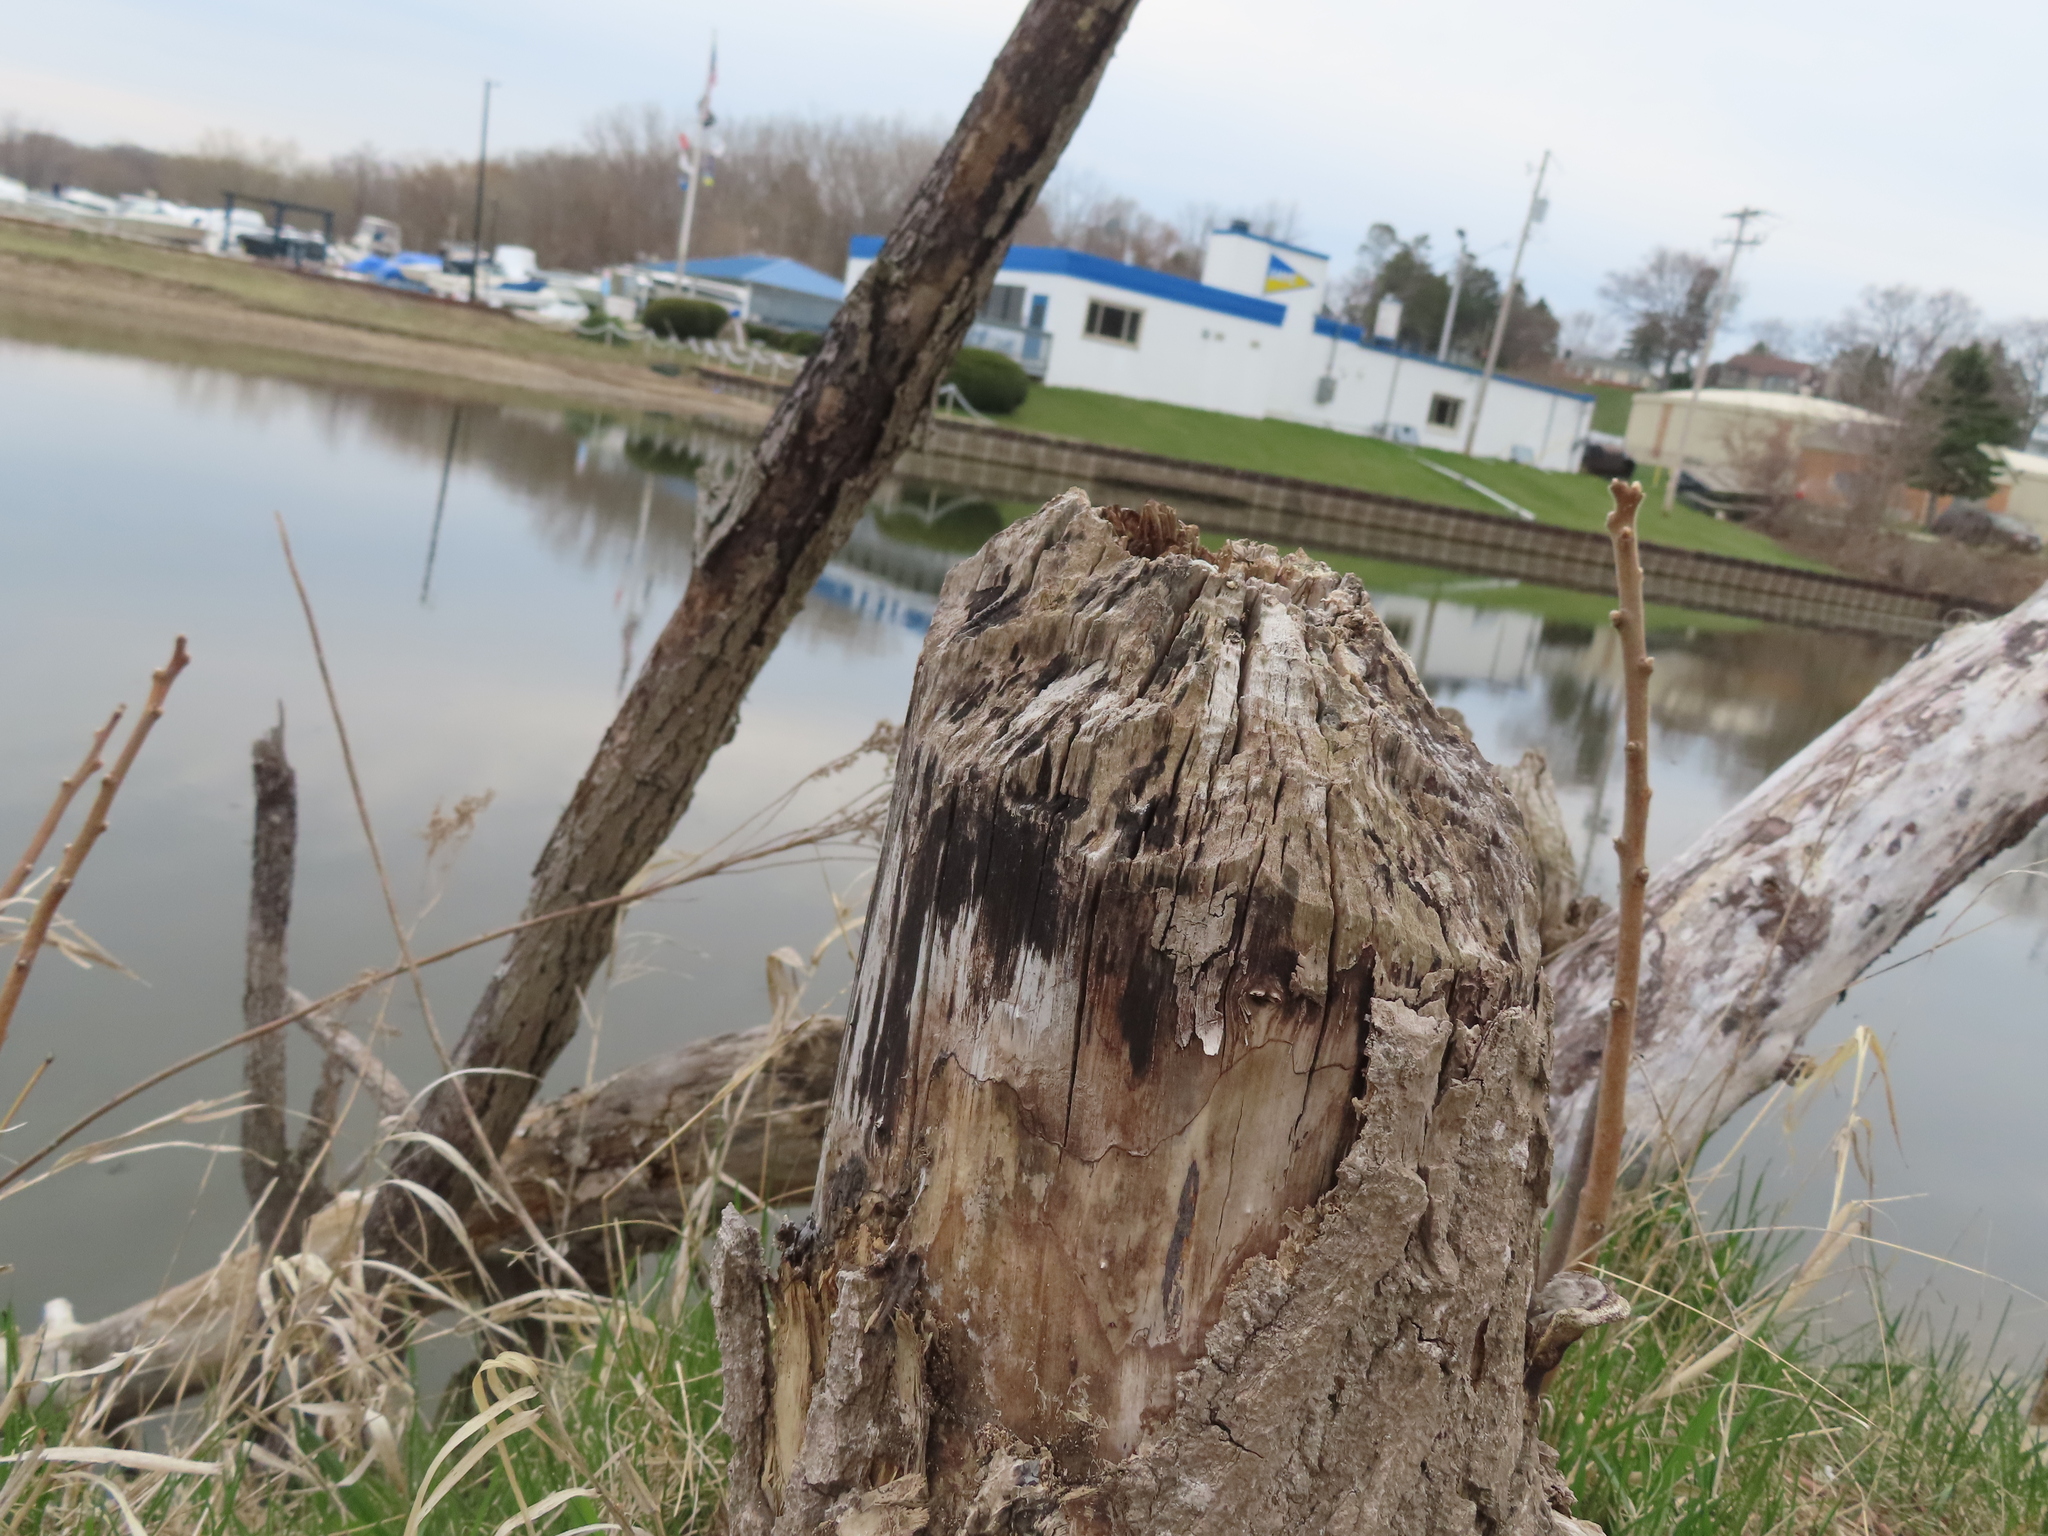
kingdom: Animalia
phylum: Chordata
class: Mammalia
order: Rodentia
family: Castoridae
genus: Castor
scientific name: Castor canadensis
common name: American beaver
